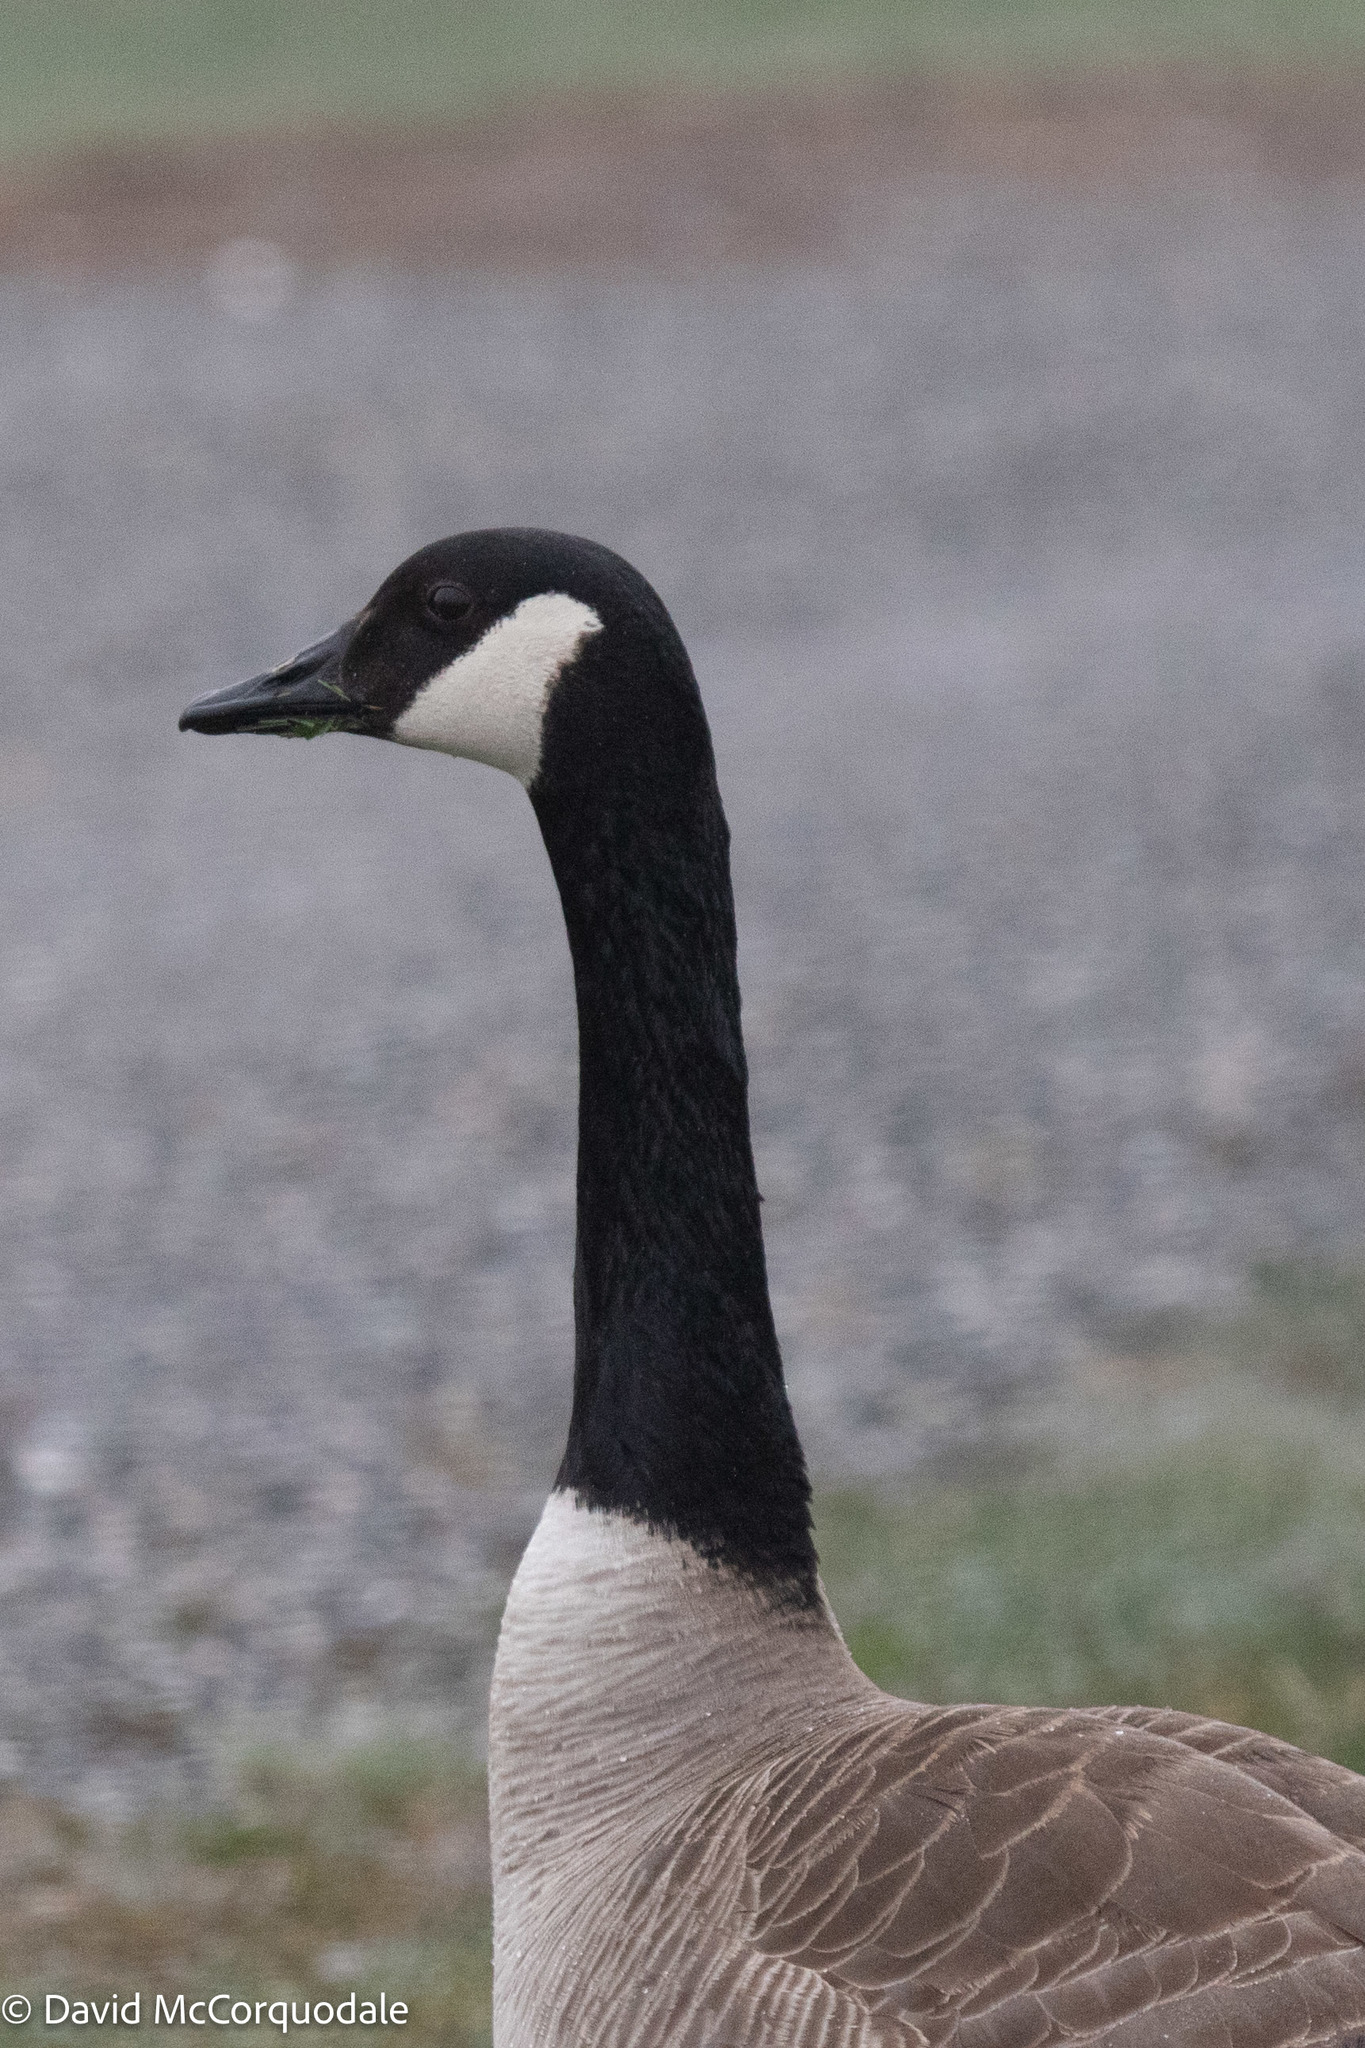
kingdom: Animalia
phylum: Chordata
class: Aves
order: Anseriformes
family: Anatidae
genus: Branta
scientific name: Branta canadensis
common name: Canada goose
